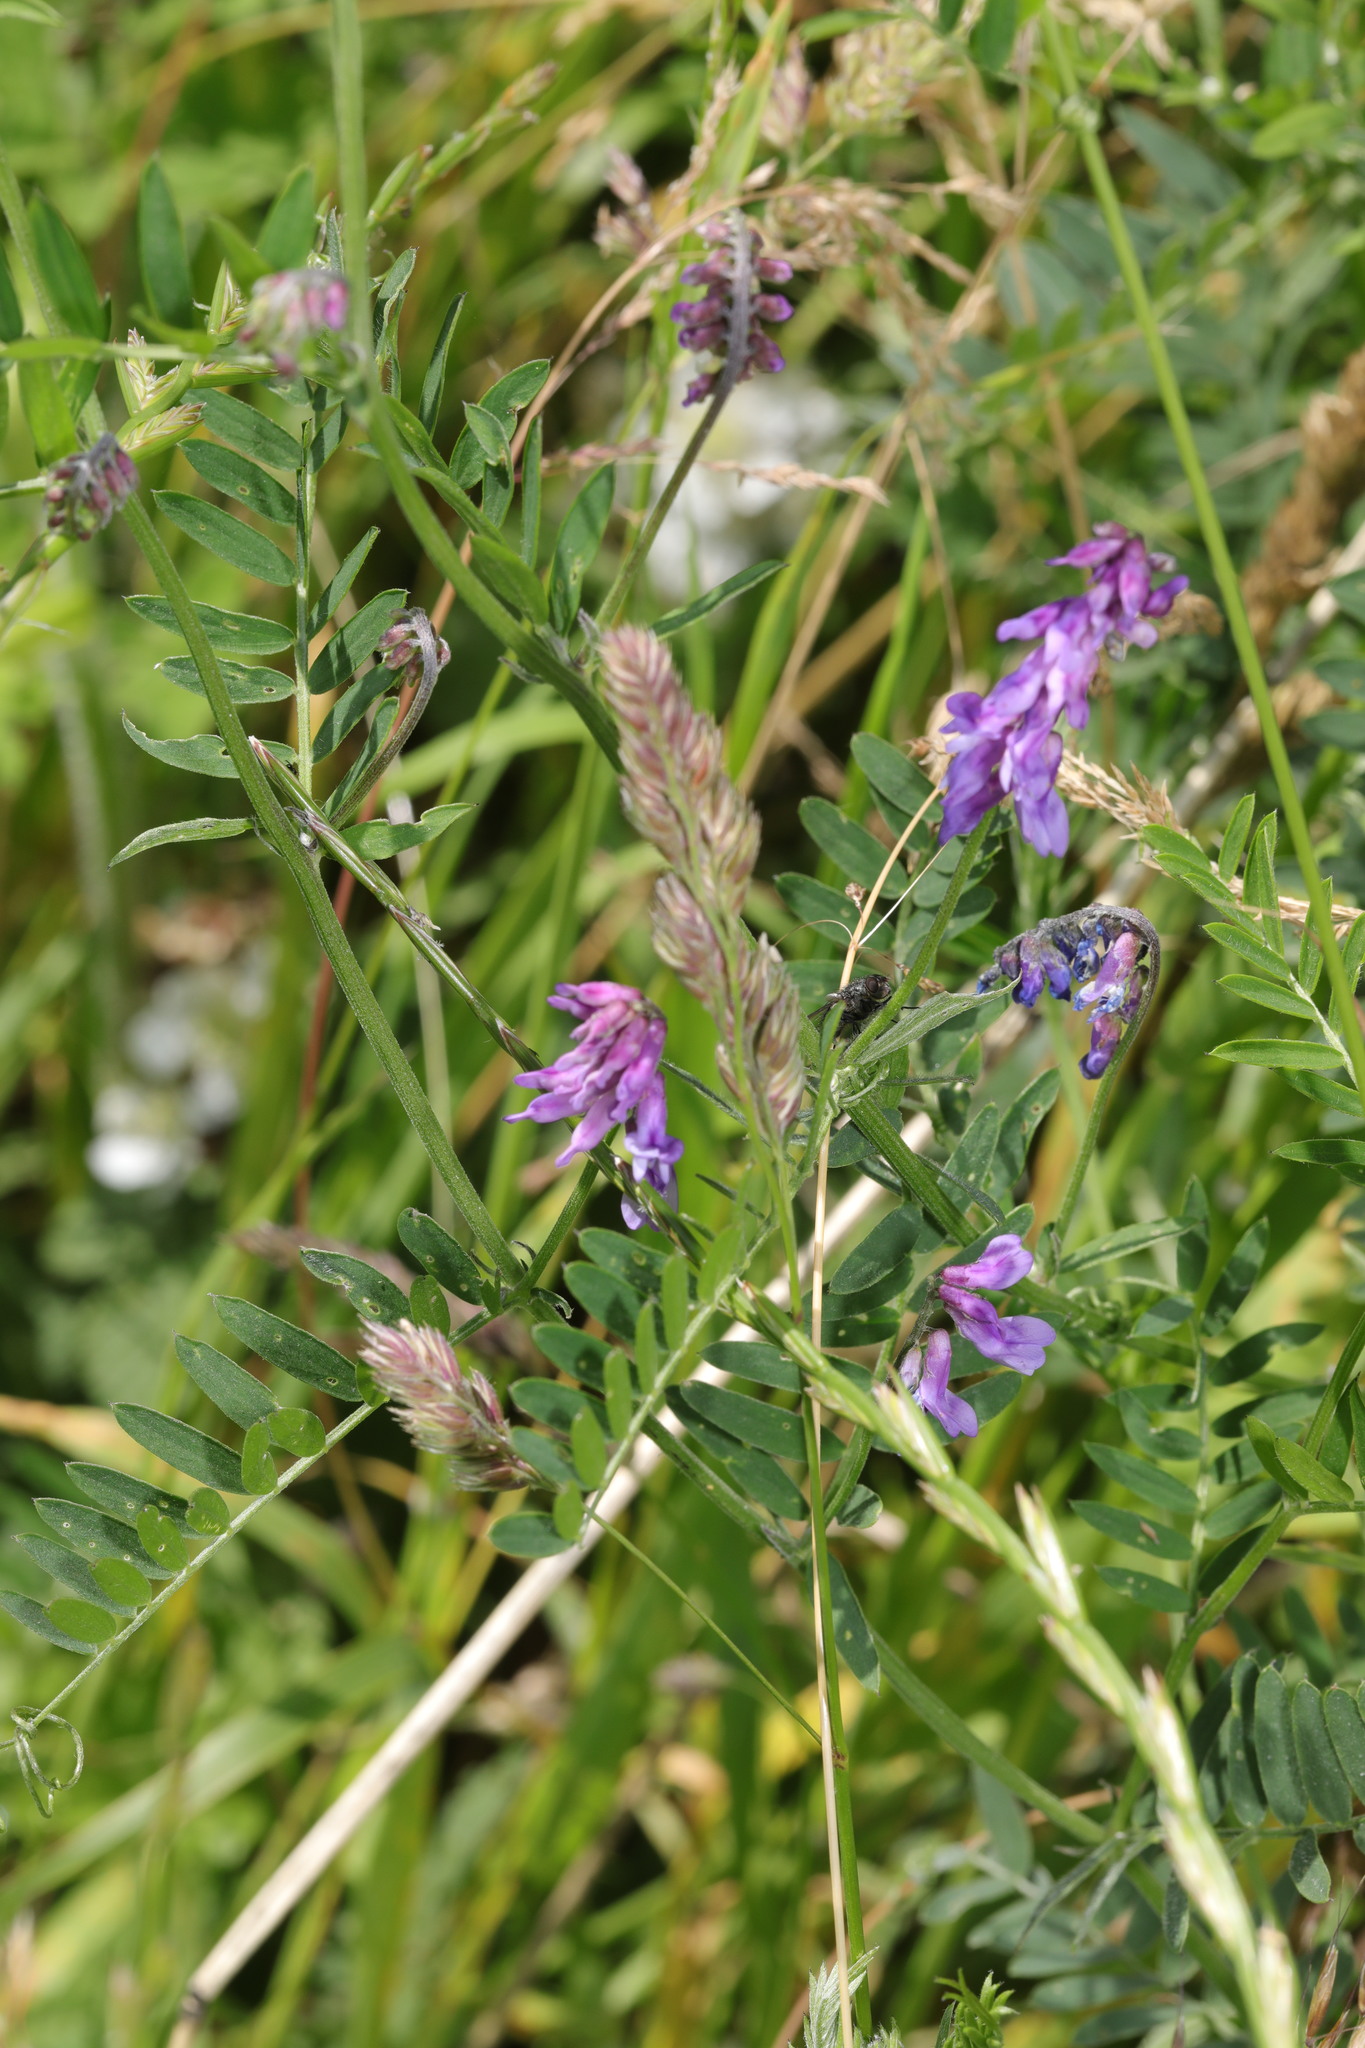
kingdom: Plantae
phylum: Tracheophyta
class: Magnoliopsida
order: Fabales
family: Fabaceae
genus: Vicia
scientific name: Vicia cracca
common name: Bird vetch
